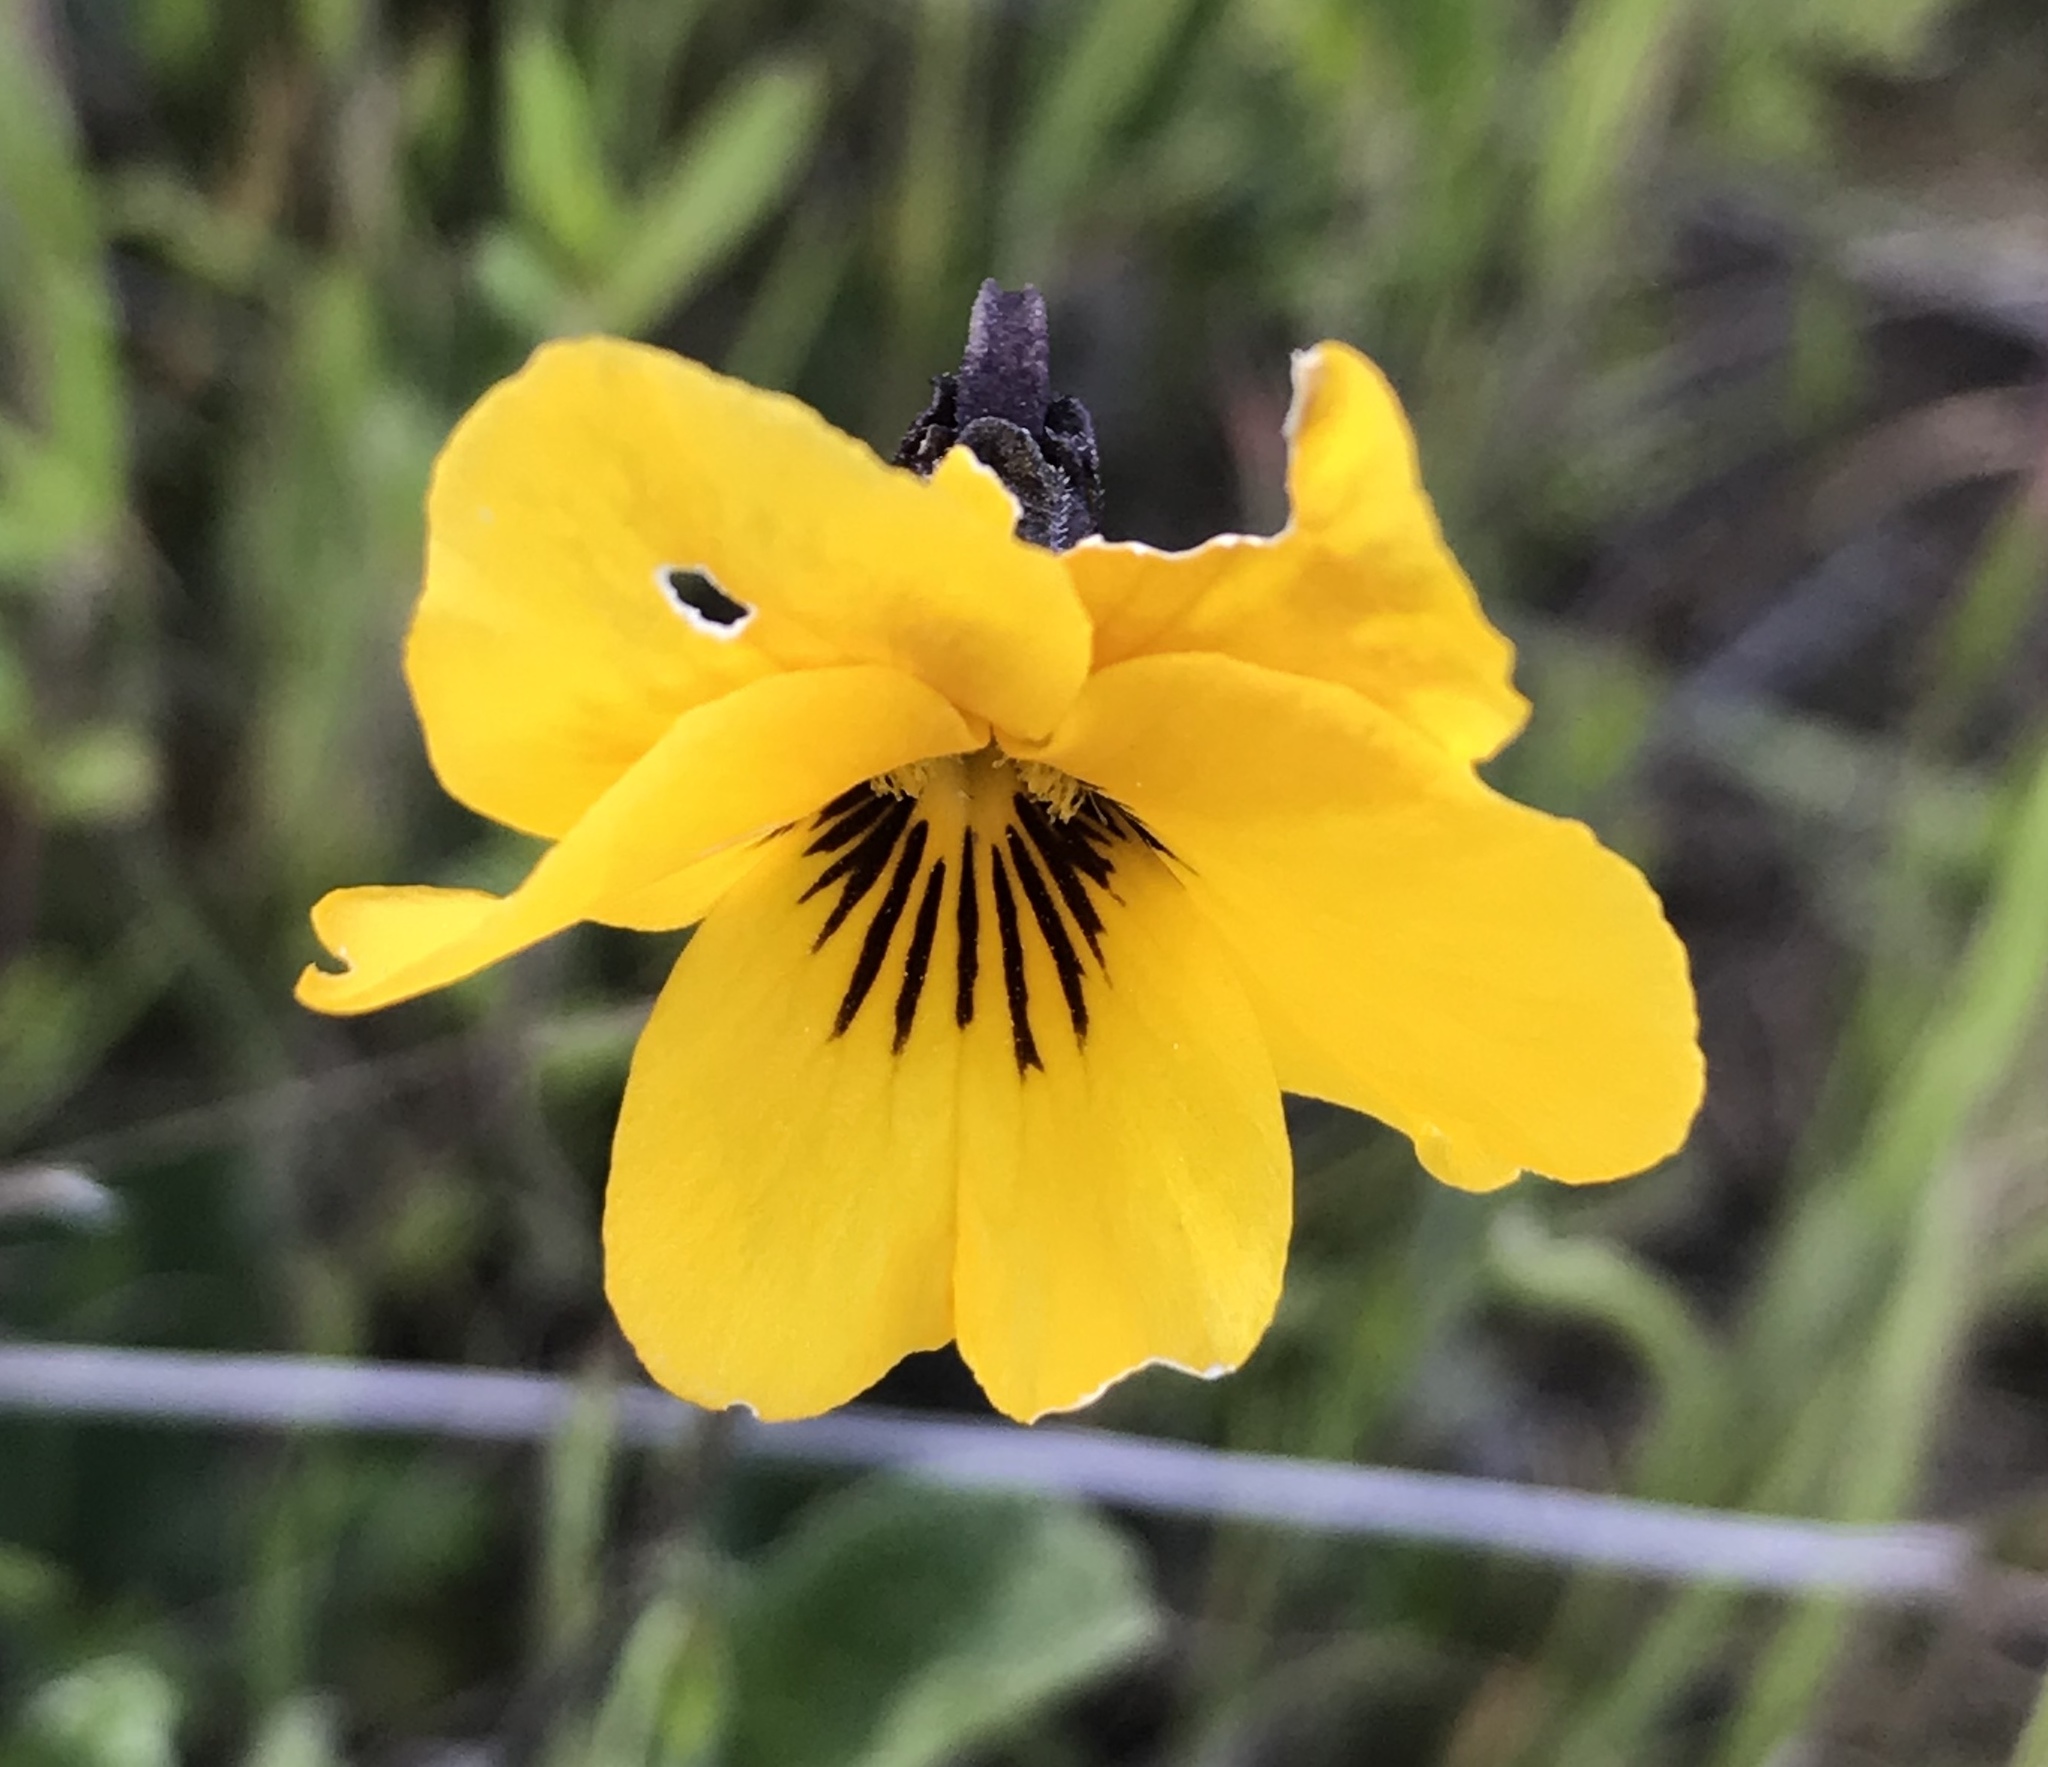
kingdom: Plantae
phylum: Tracheophyta
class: Magnoliopsida
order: Malpighiales
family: Violaceae
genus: Viola
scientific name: Viola pedunculata
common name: California golden violet
